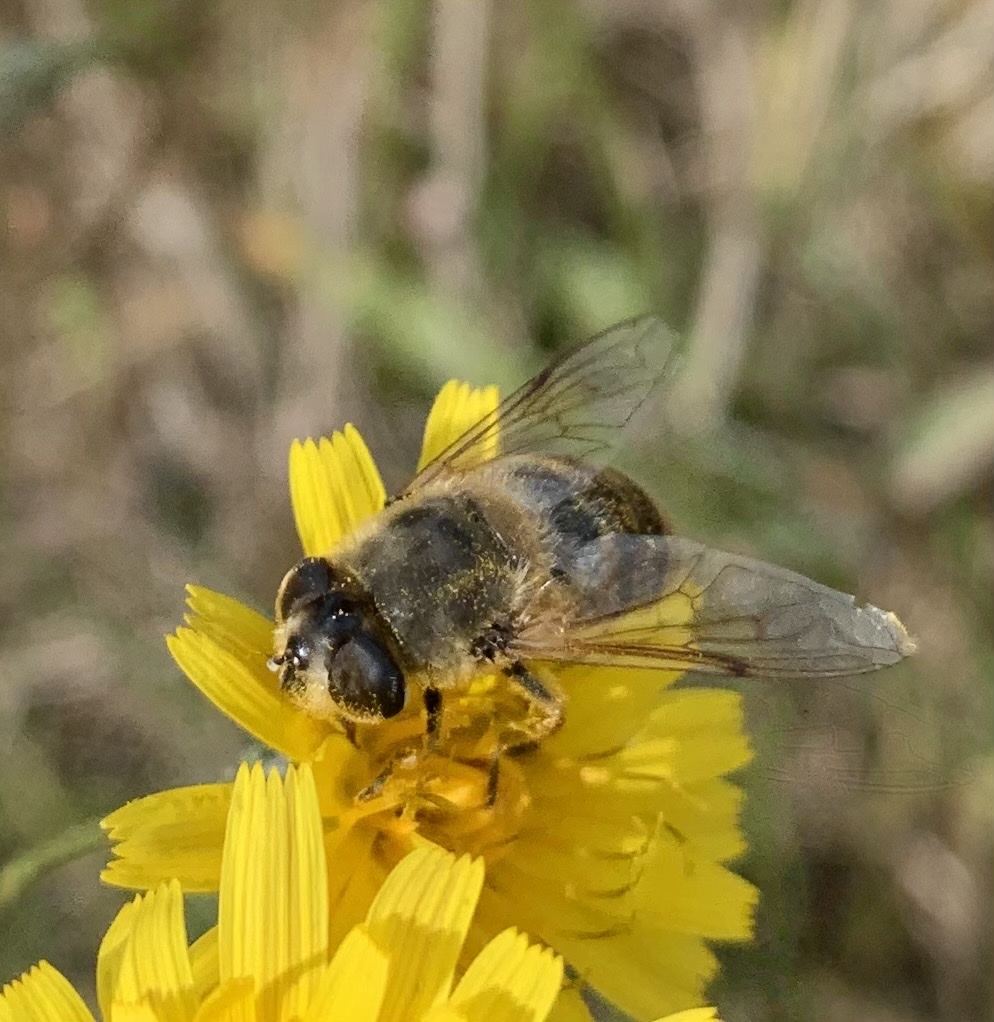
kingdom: Animalia
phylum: Arthropoda
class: Insecta
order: Diptera
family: Syrphidae
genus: Eristalis
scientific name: Eristalis tenax
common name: Drone fly
